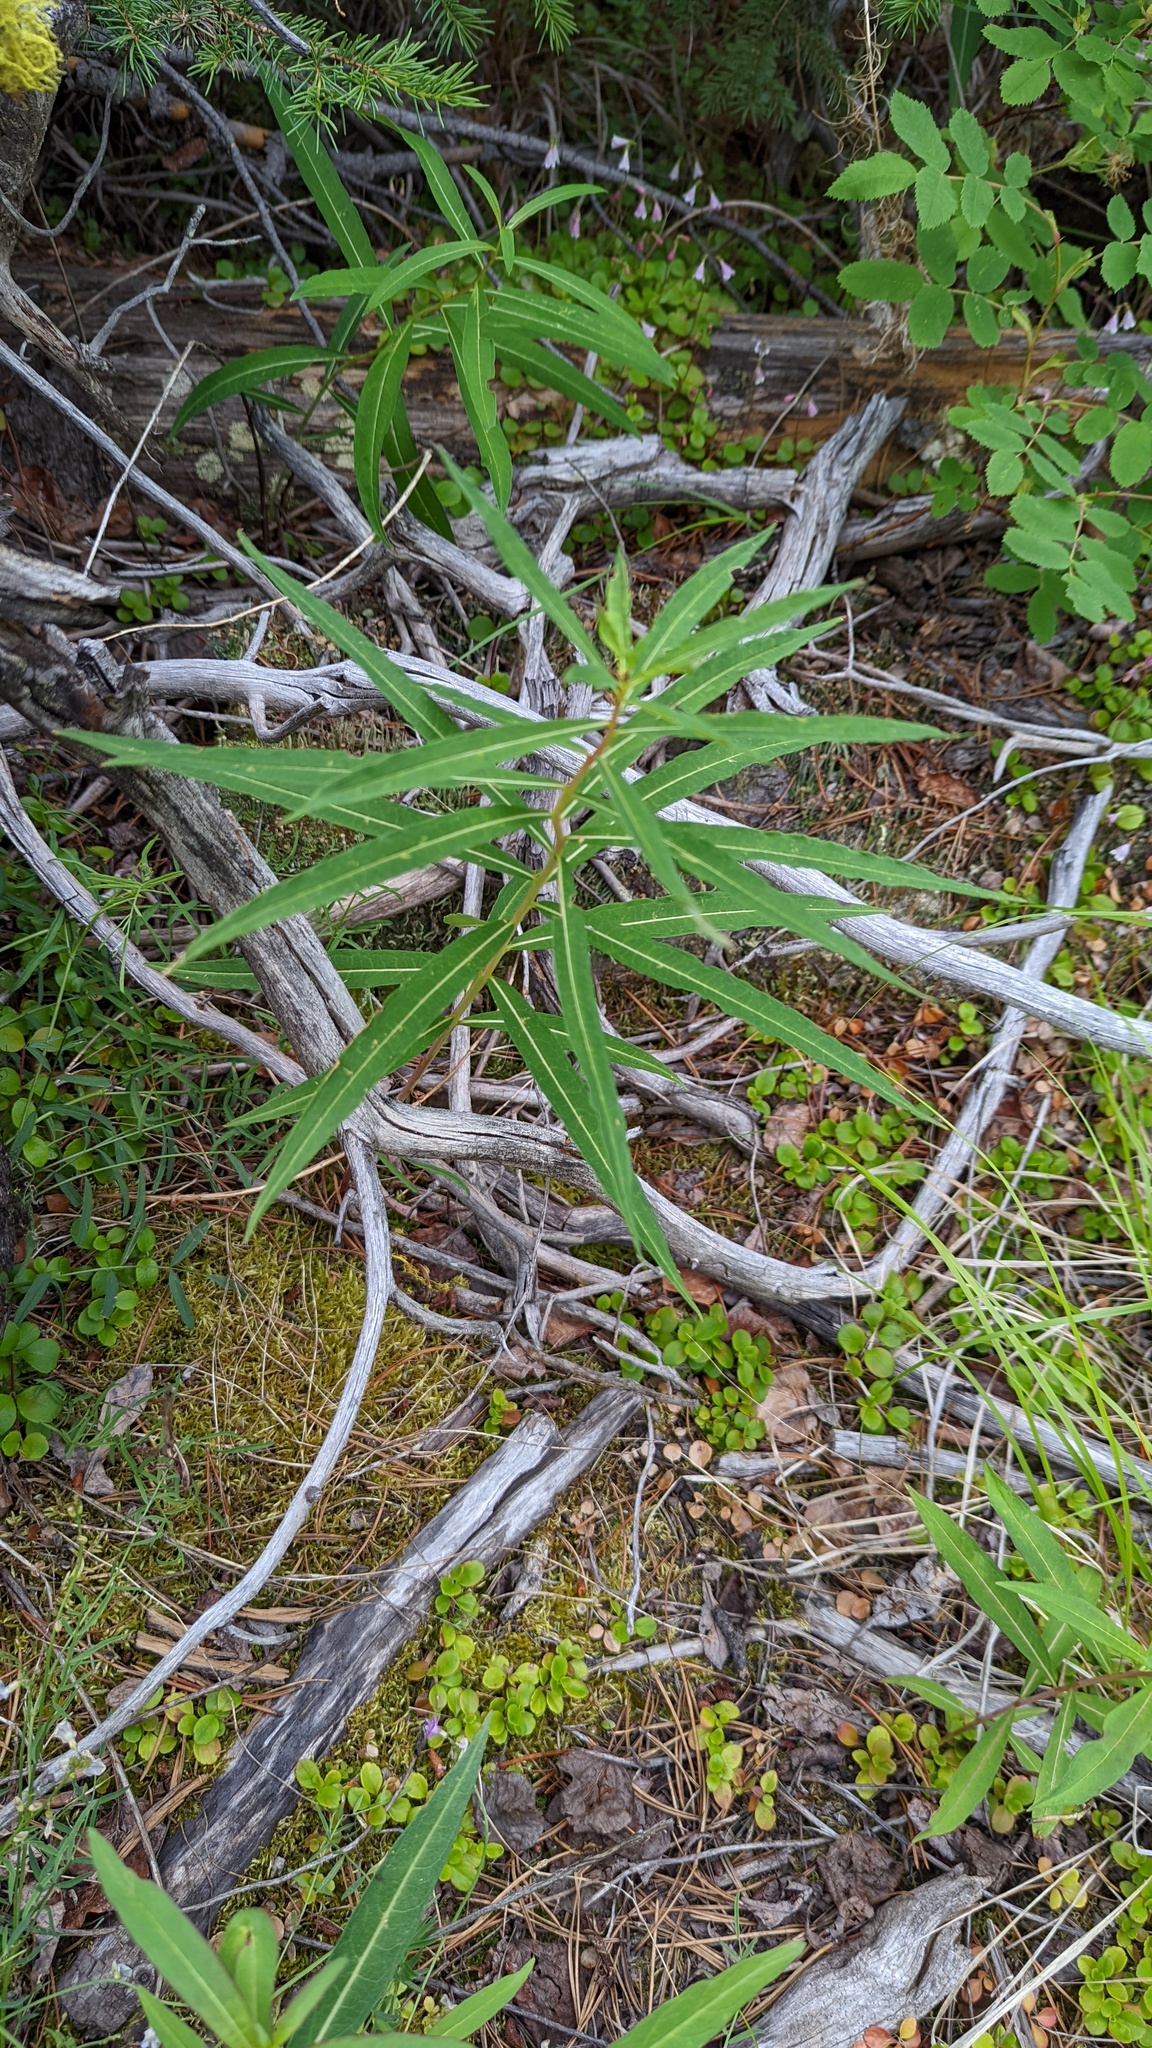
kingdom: Plantae
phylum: Tracheophyta
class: Magnoliopsida
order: Myrtales
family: Onagraceae
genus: Chamaenerion
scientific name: Chamaenerion angustifolium
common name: Fireweed
